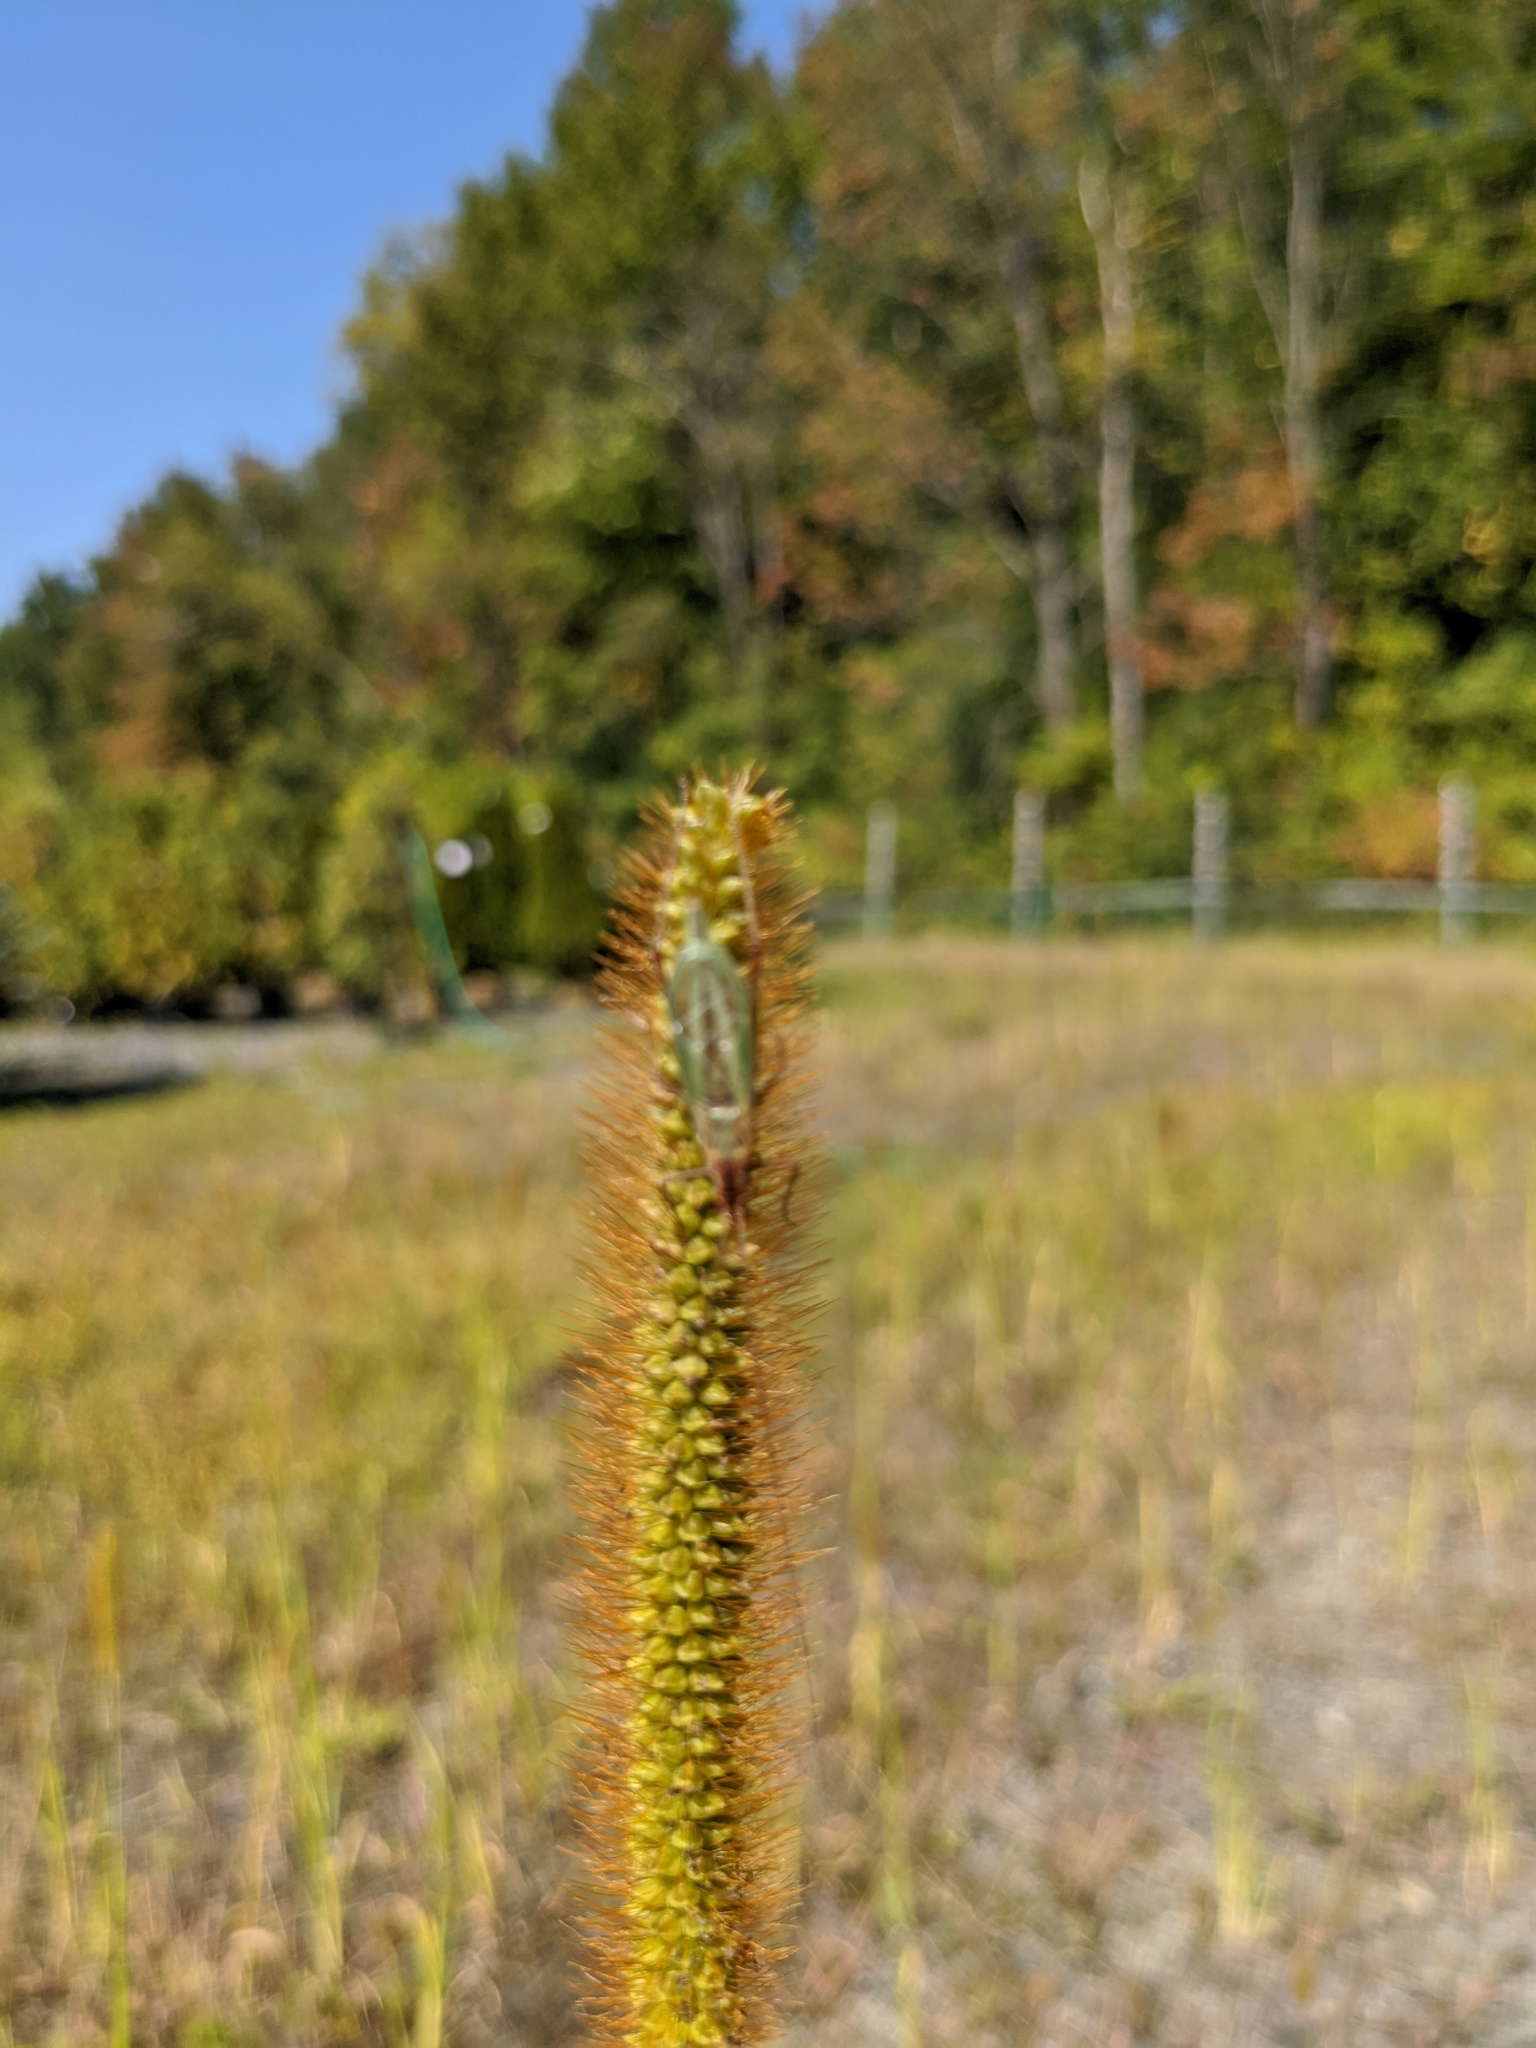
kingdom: Animalia
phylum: Arthropoda
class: Insecta
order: Orthoptera
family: Gryllidae
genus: Oecanthus
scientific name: Oecanthus pini
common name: Pine tree cricket
